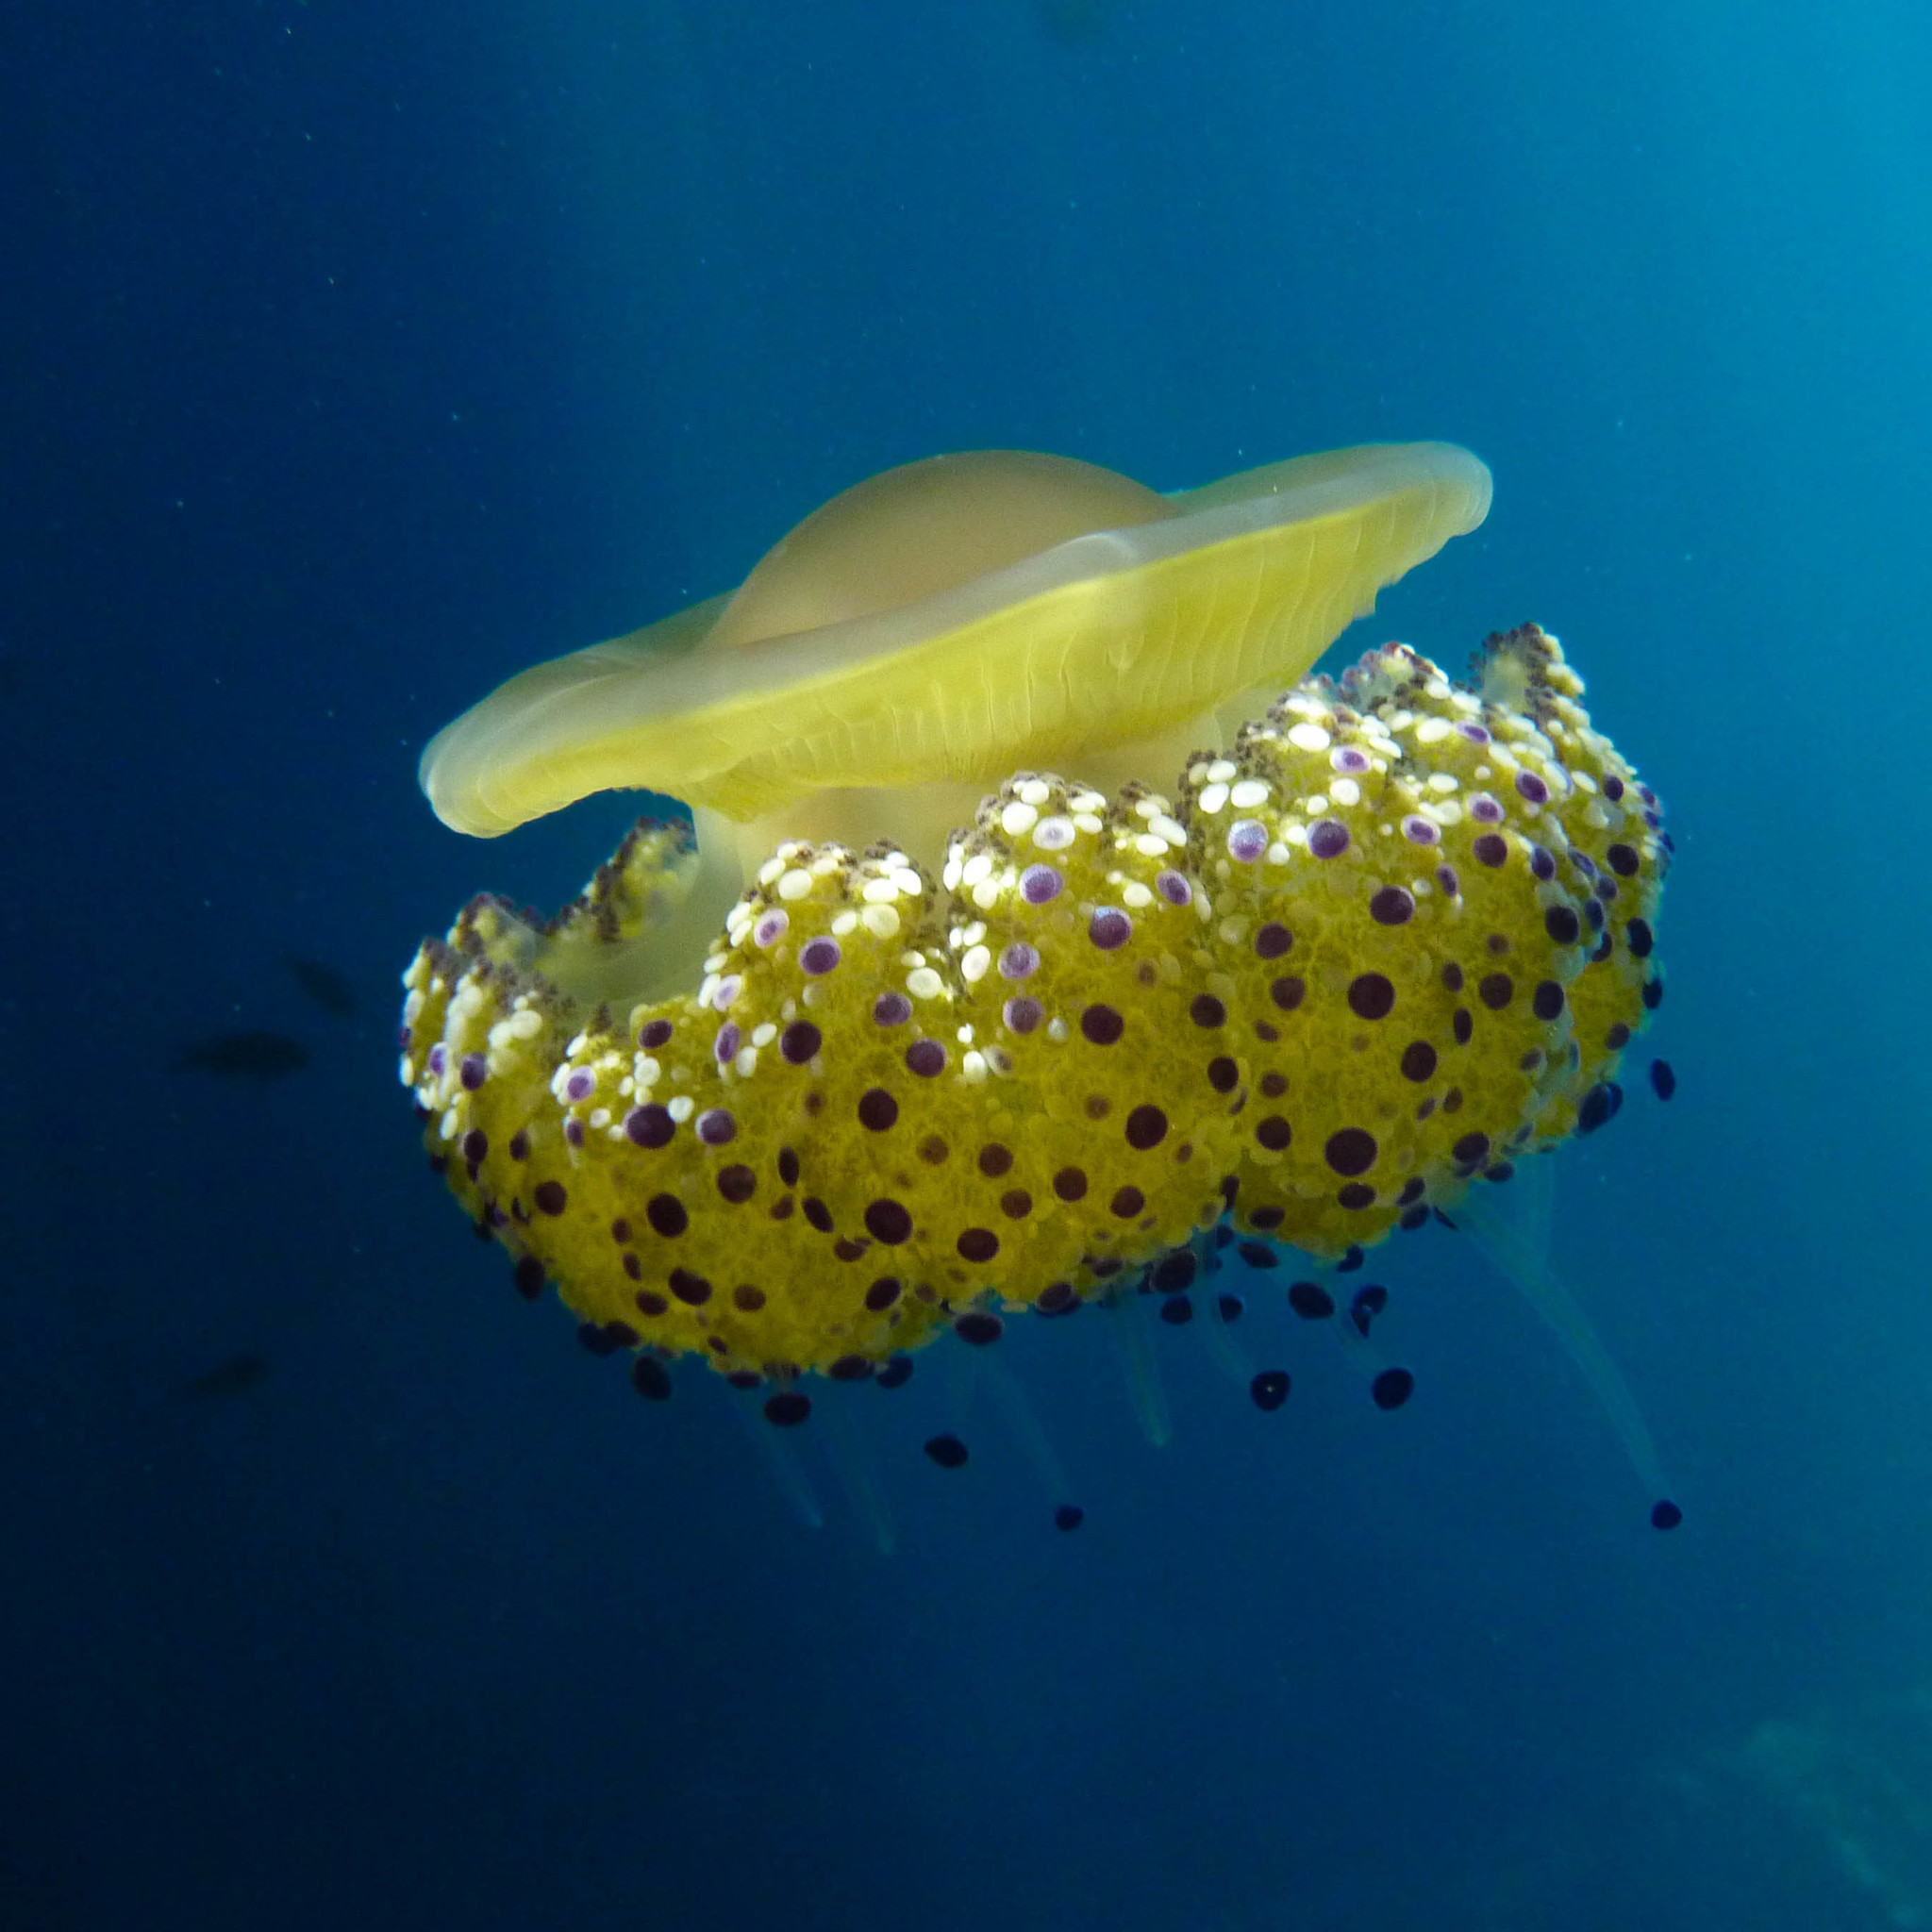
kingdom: Animalia
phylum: Cnidaria
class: Scyphozoa
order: Rhizostomeae
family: Cepheidae
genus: Cotylorhiza
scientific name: Cotylorhiza tuberculata
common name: Mediterranean jelly
